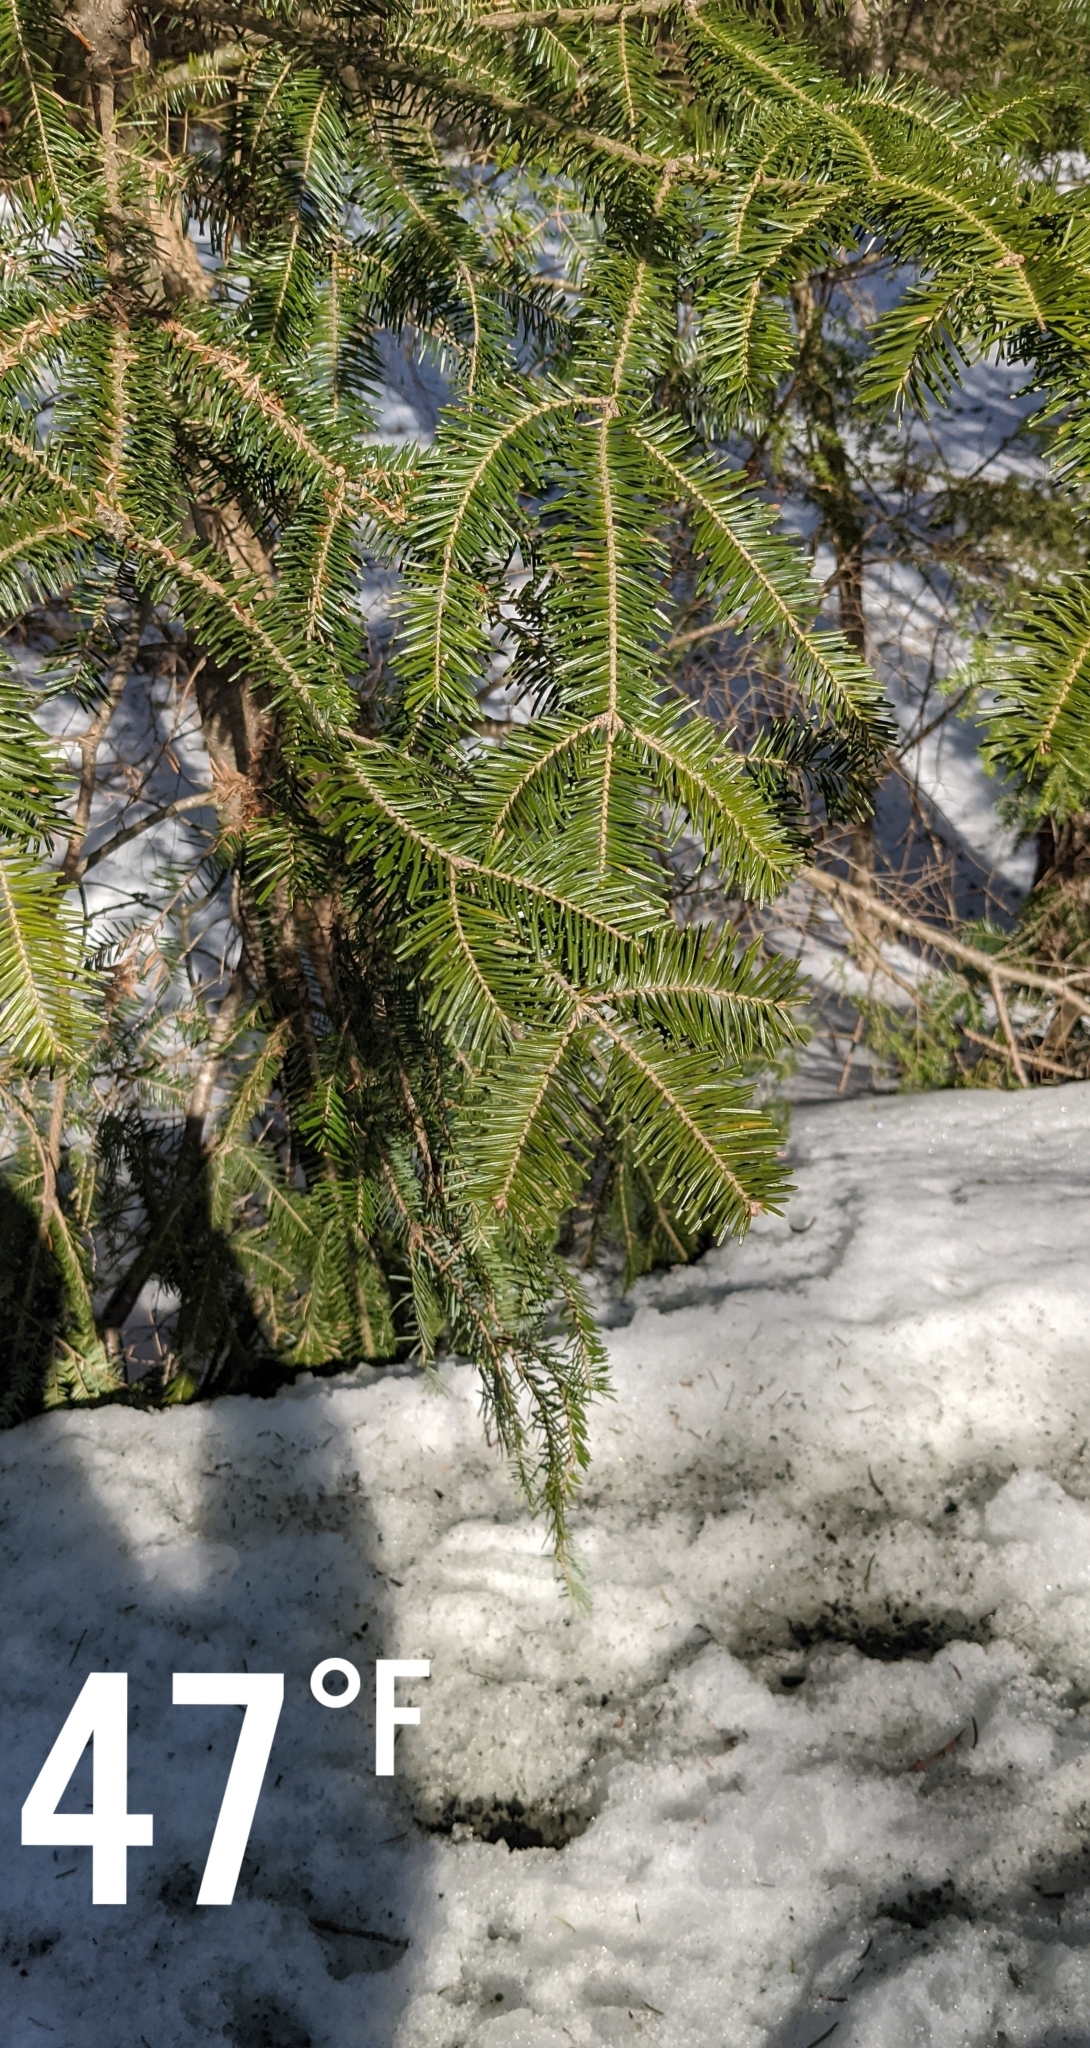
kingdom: Plantae
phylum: Tracheophyta
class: Pinopsida
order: Pinales
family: Pinaceae
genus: Abies
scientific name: Abies balsamea
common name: Balsam fir
